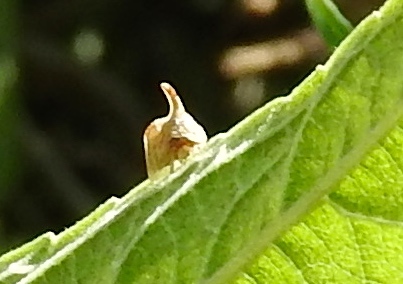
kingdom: Animalia
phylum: Arthropoda
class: Insecta
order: Hemiptera
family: Membracidae
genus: Entylia
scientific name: Entylia
